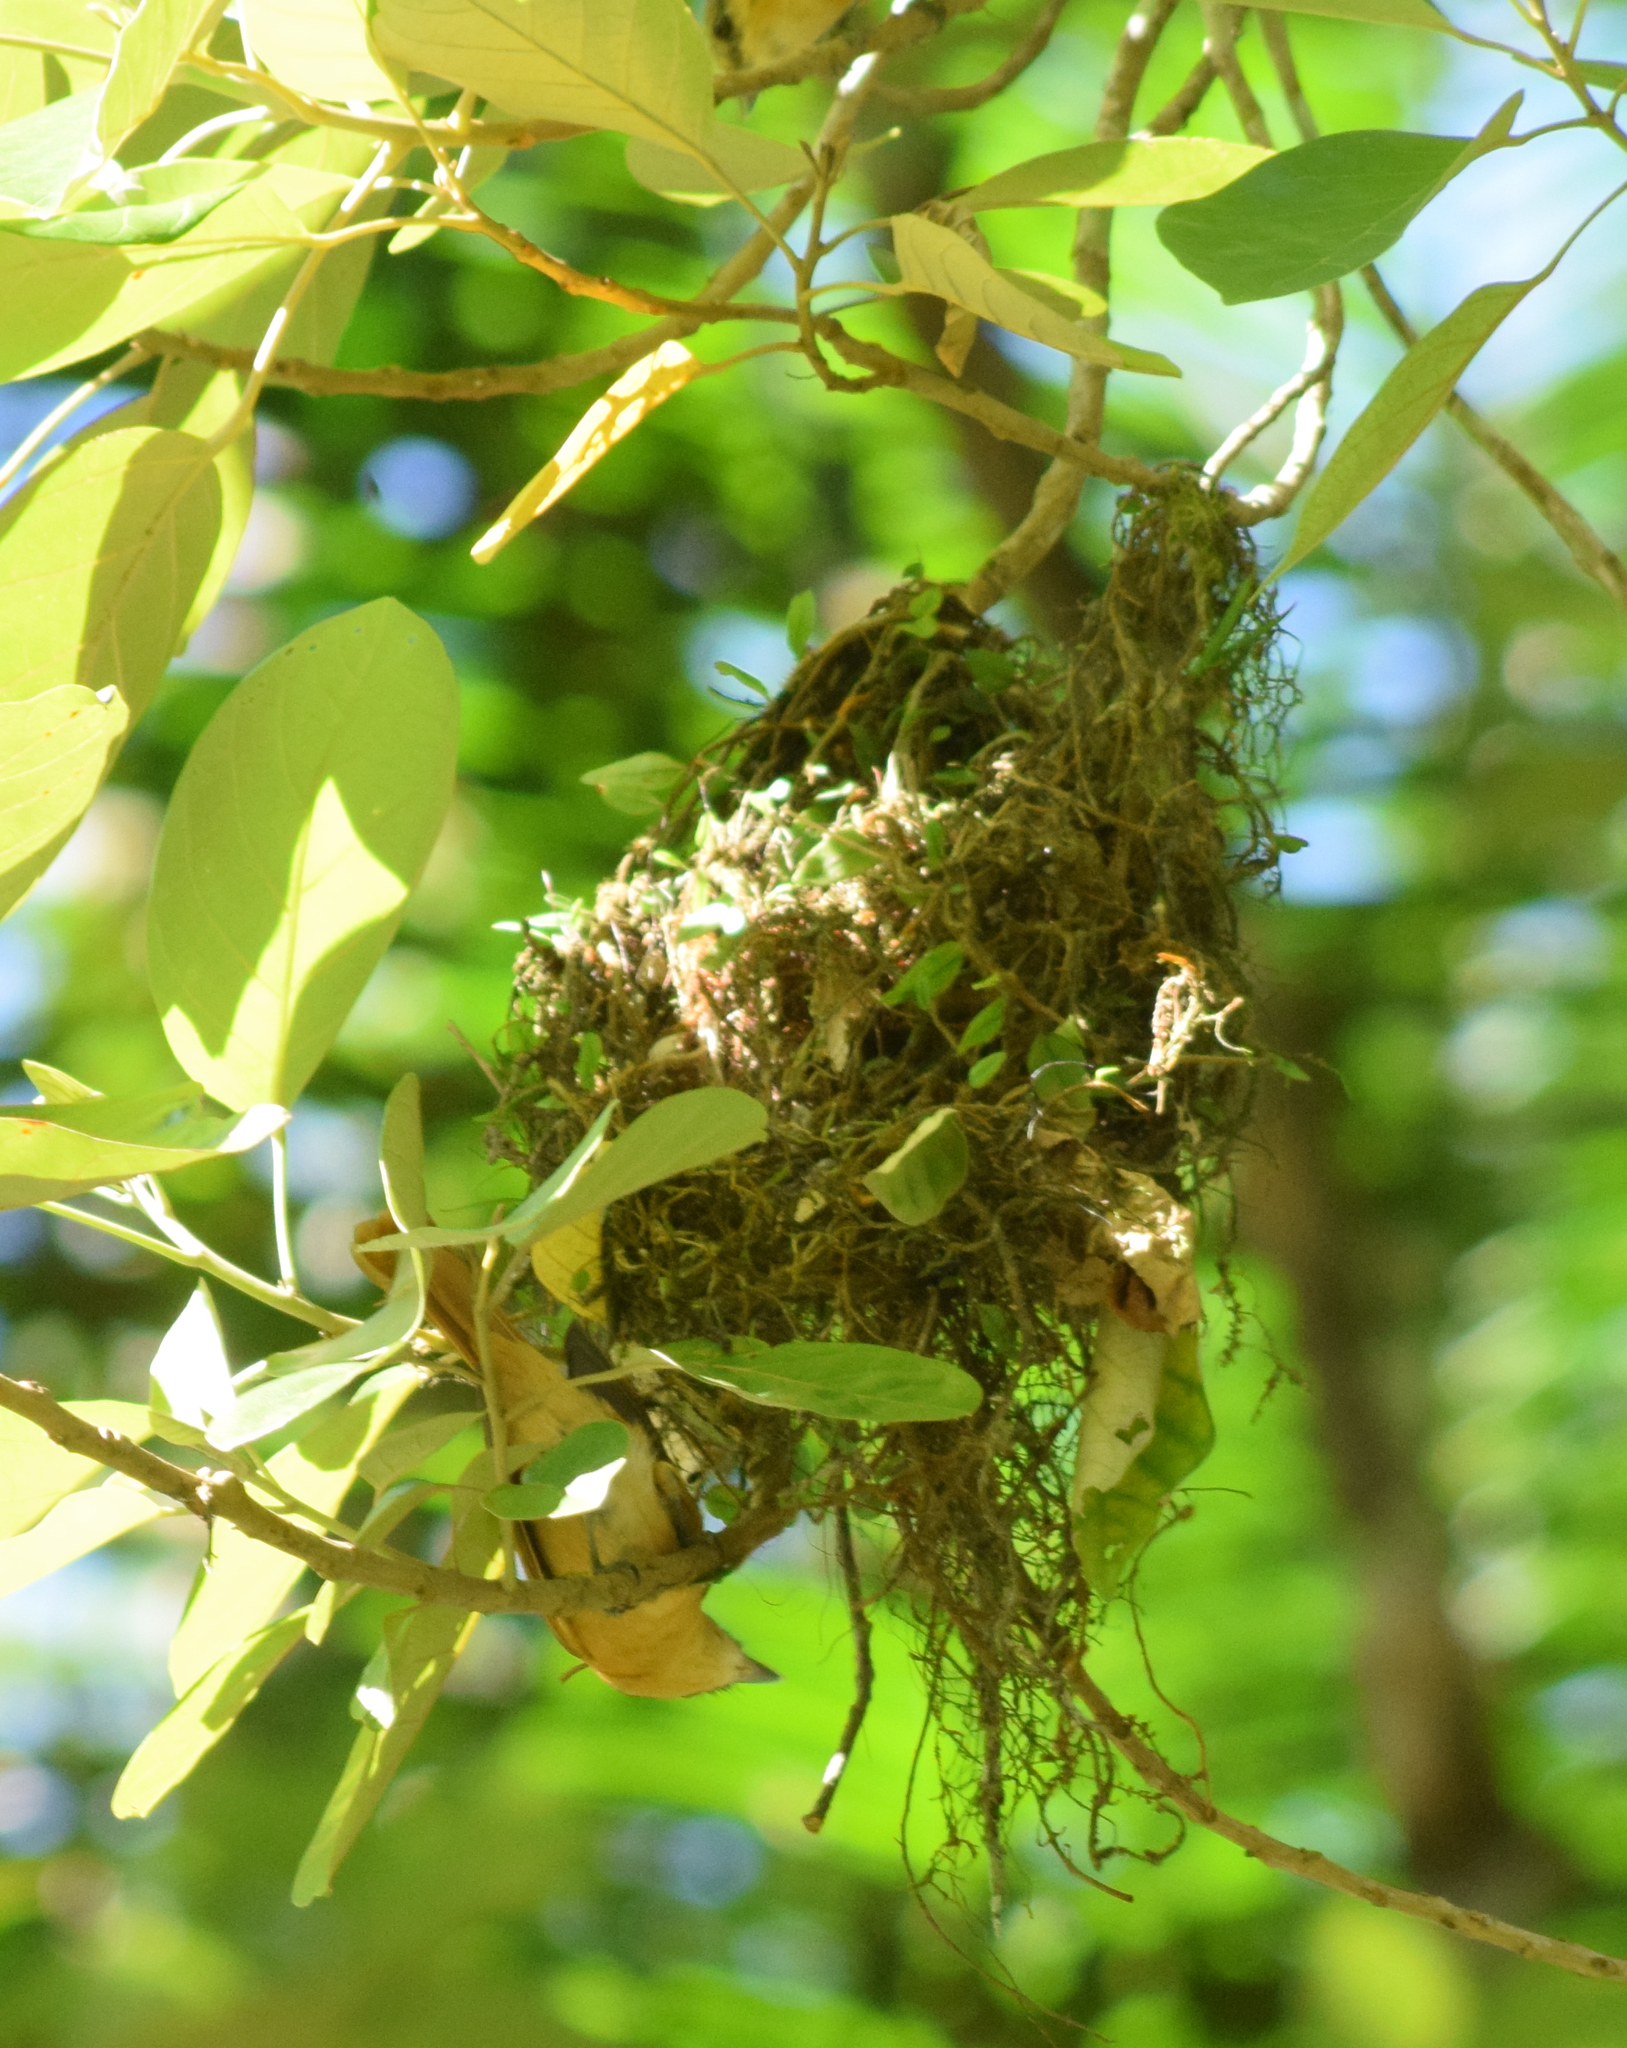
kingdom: Animalia
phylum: Chordata
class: Aves
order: Passeriformes
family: Cotingidae
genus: Pachyramphus
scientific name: Pachyramphus castaneus
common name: Chestnut-crowned becard
